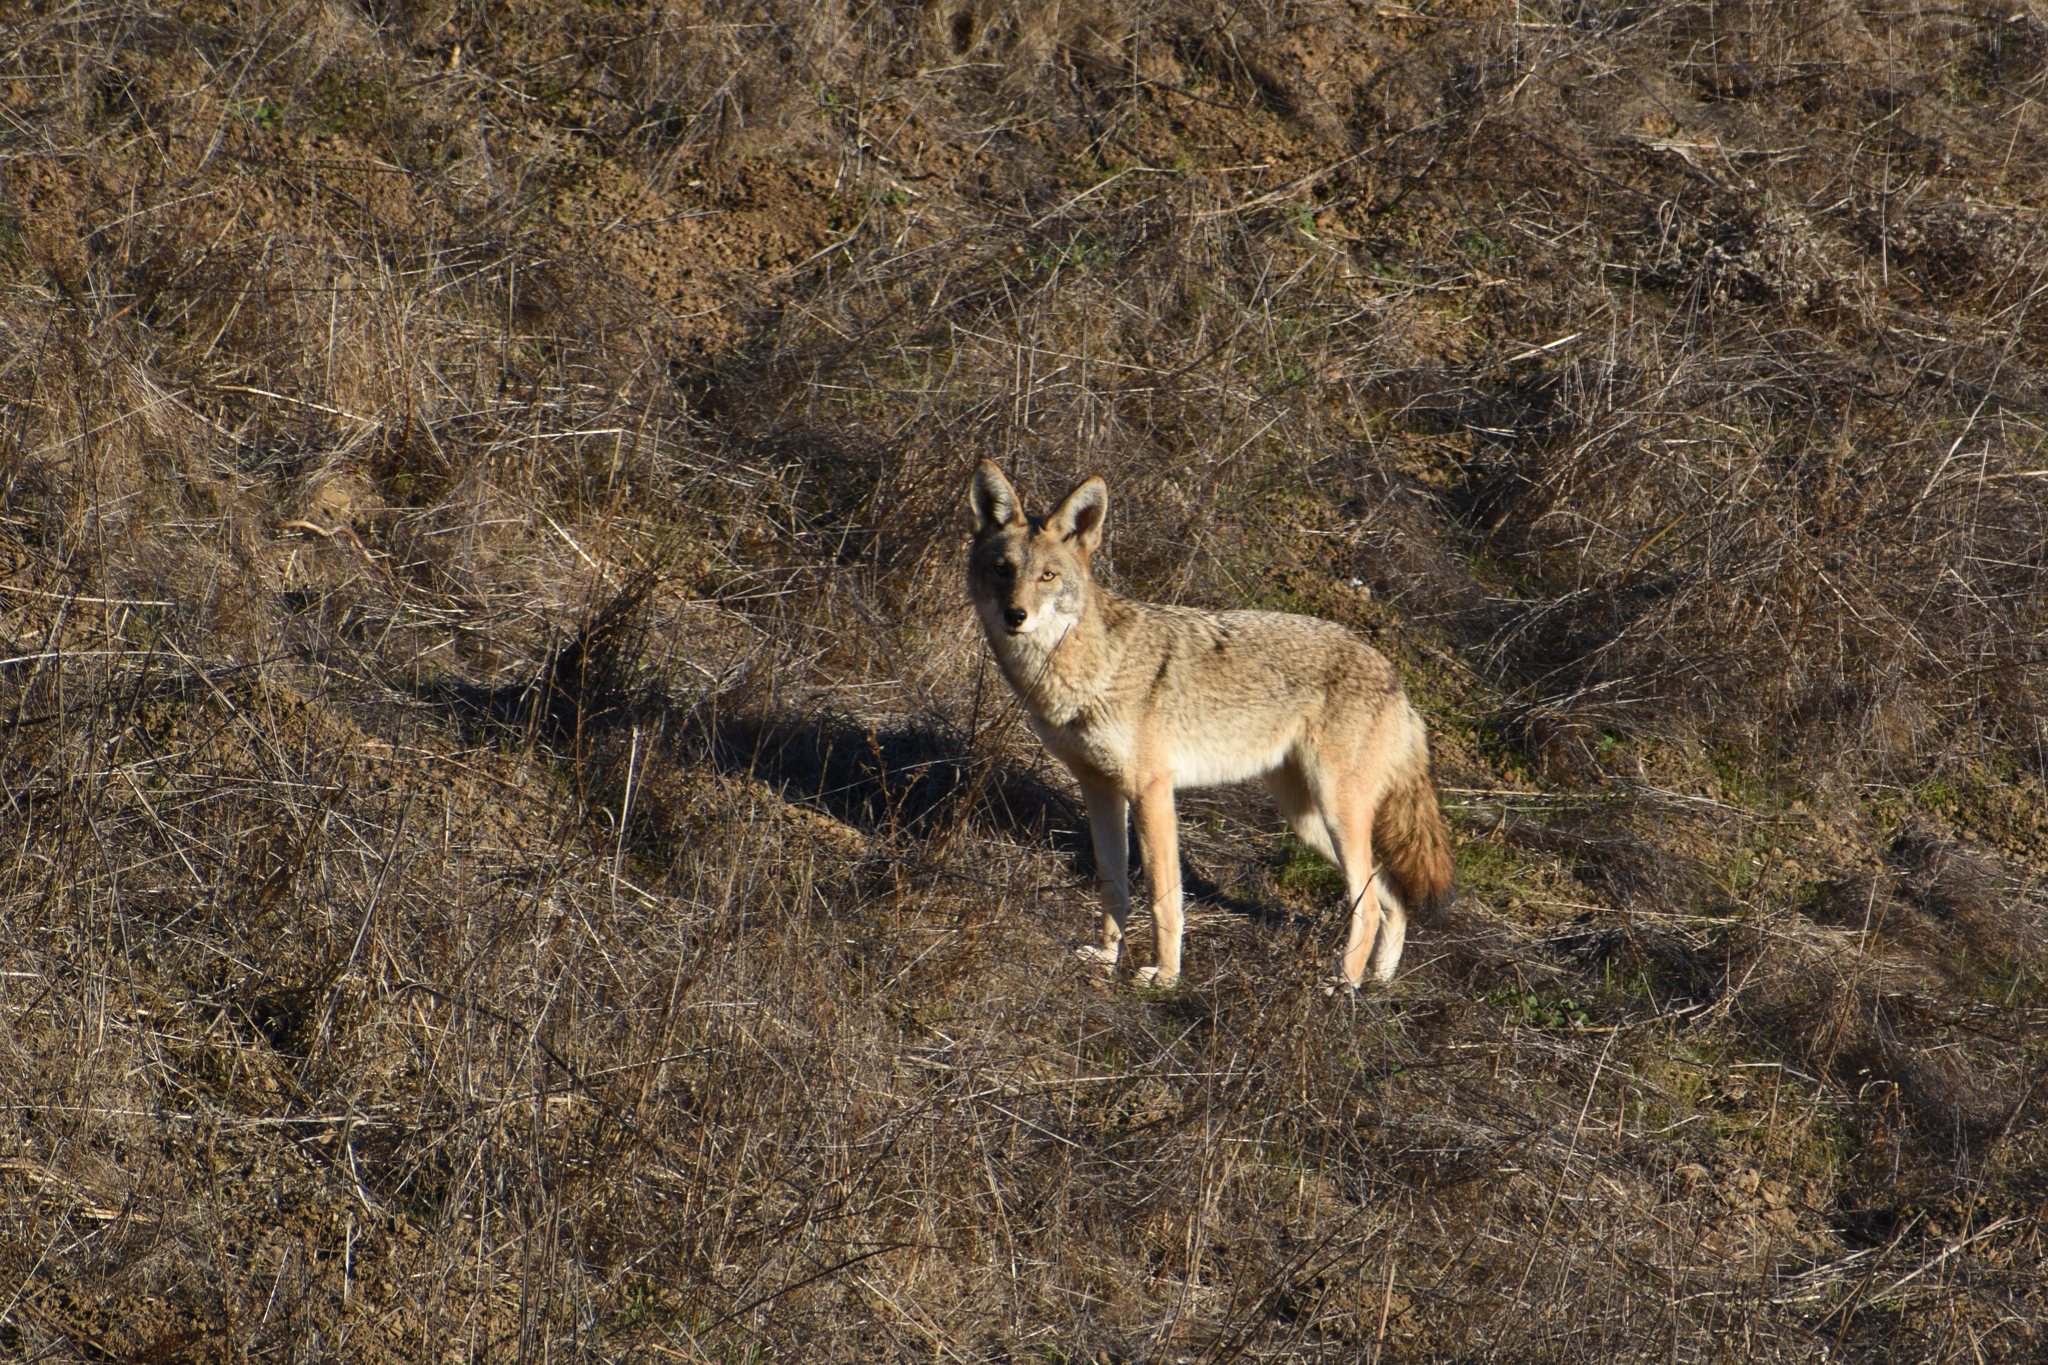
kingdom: Animalia
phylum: Chordata
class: Mammalia
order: Carnivora
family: Canidae
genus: Canis
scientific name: Canis latrans
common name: Coyote
